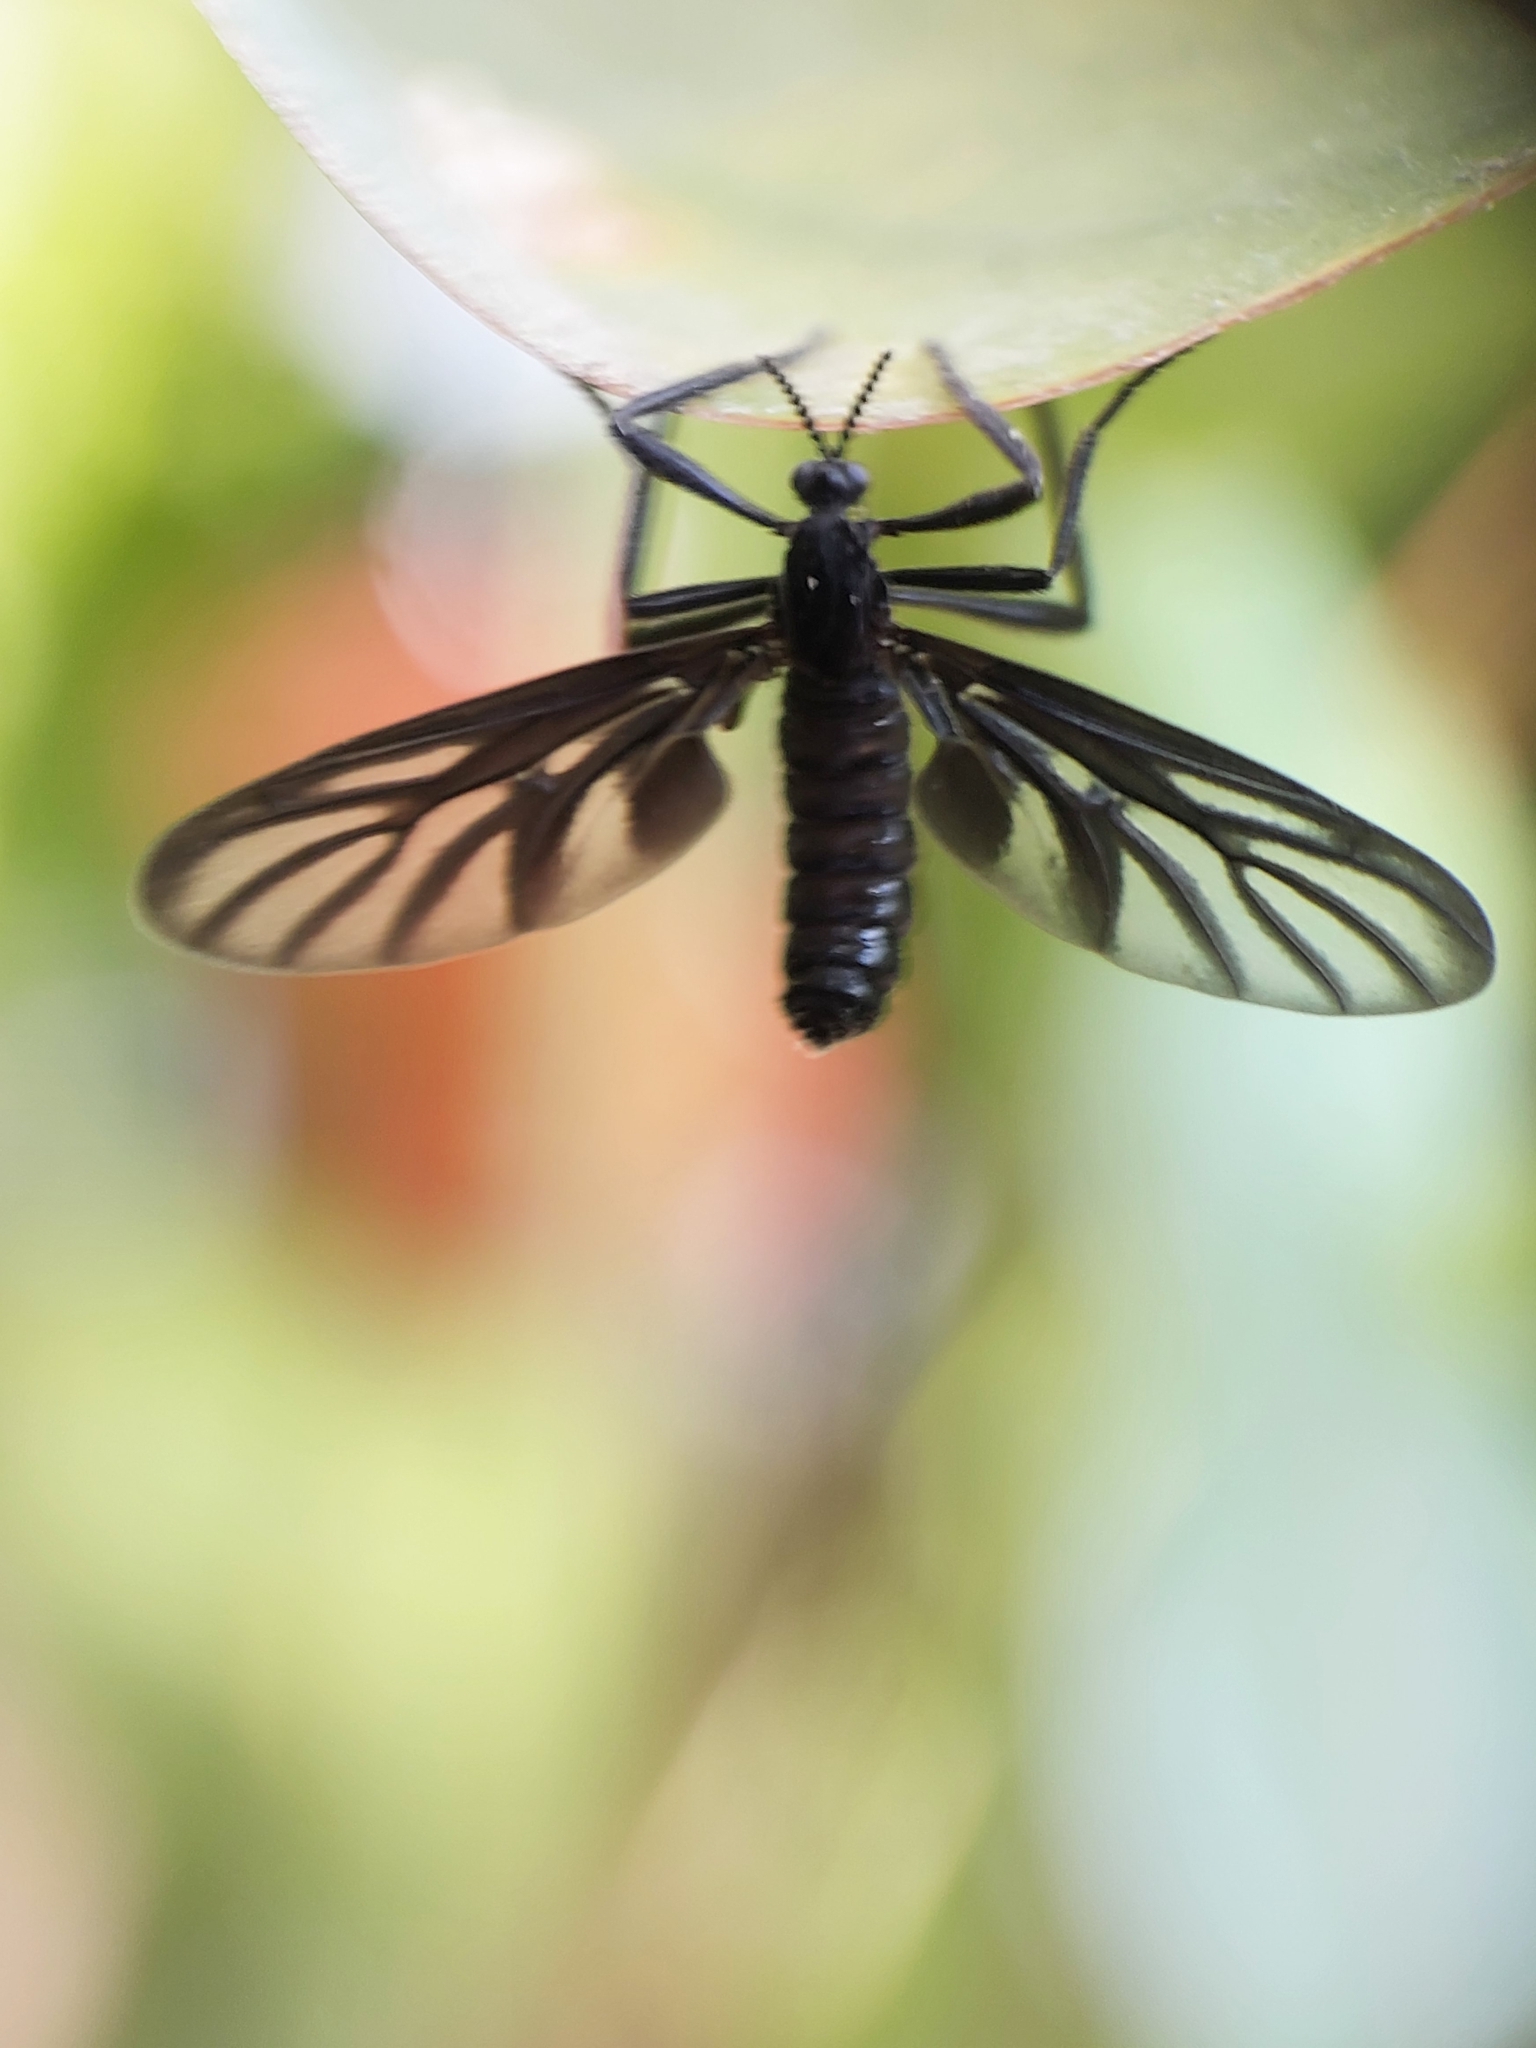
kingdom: Animalia
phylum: Arthropoda
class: Insecta
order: Diptera
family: Bibionidae
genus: Plecia
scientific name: Plecia plagiata
